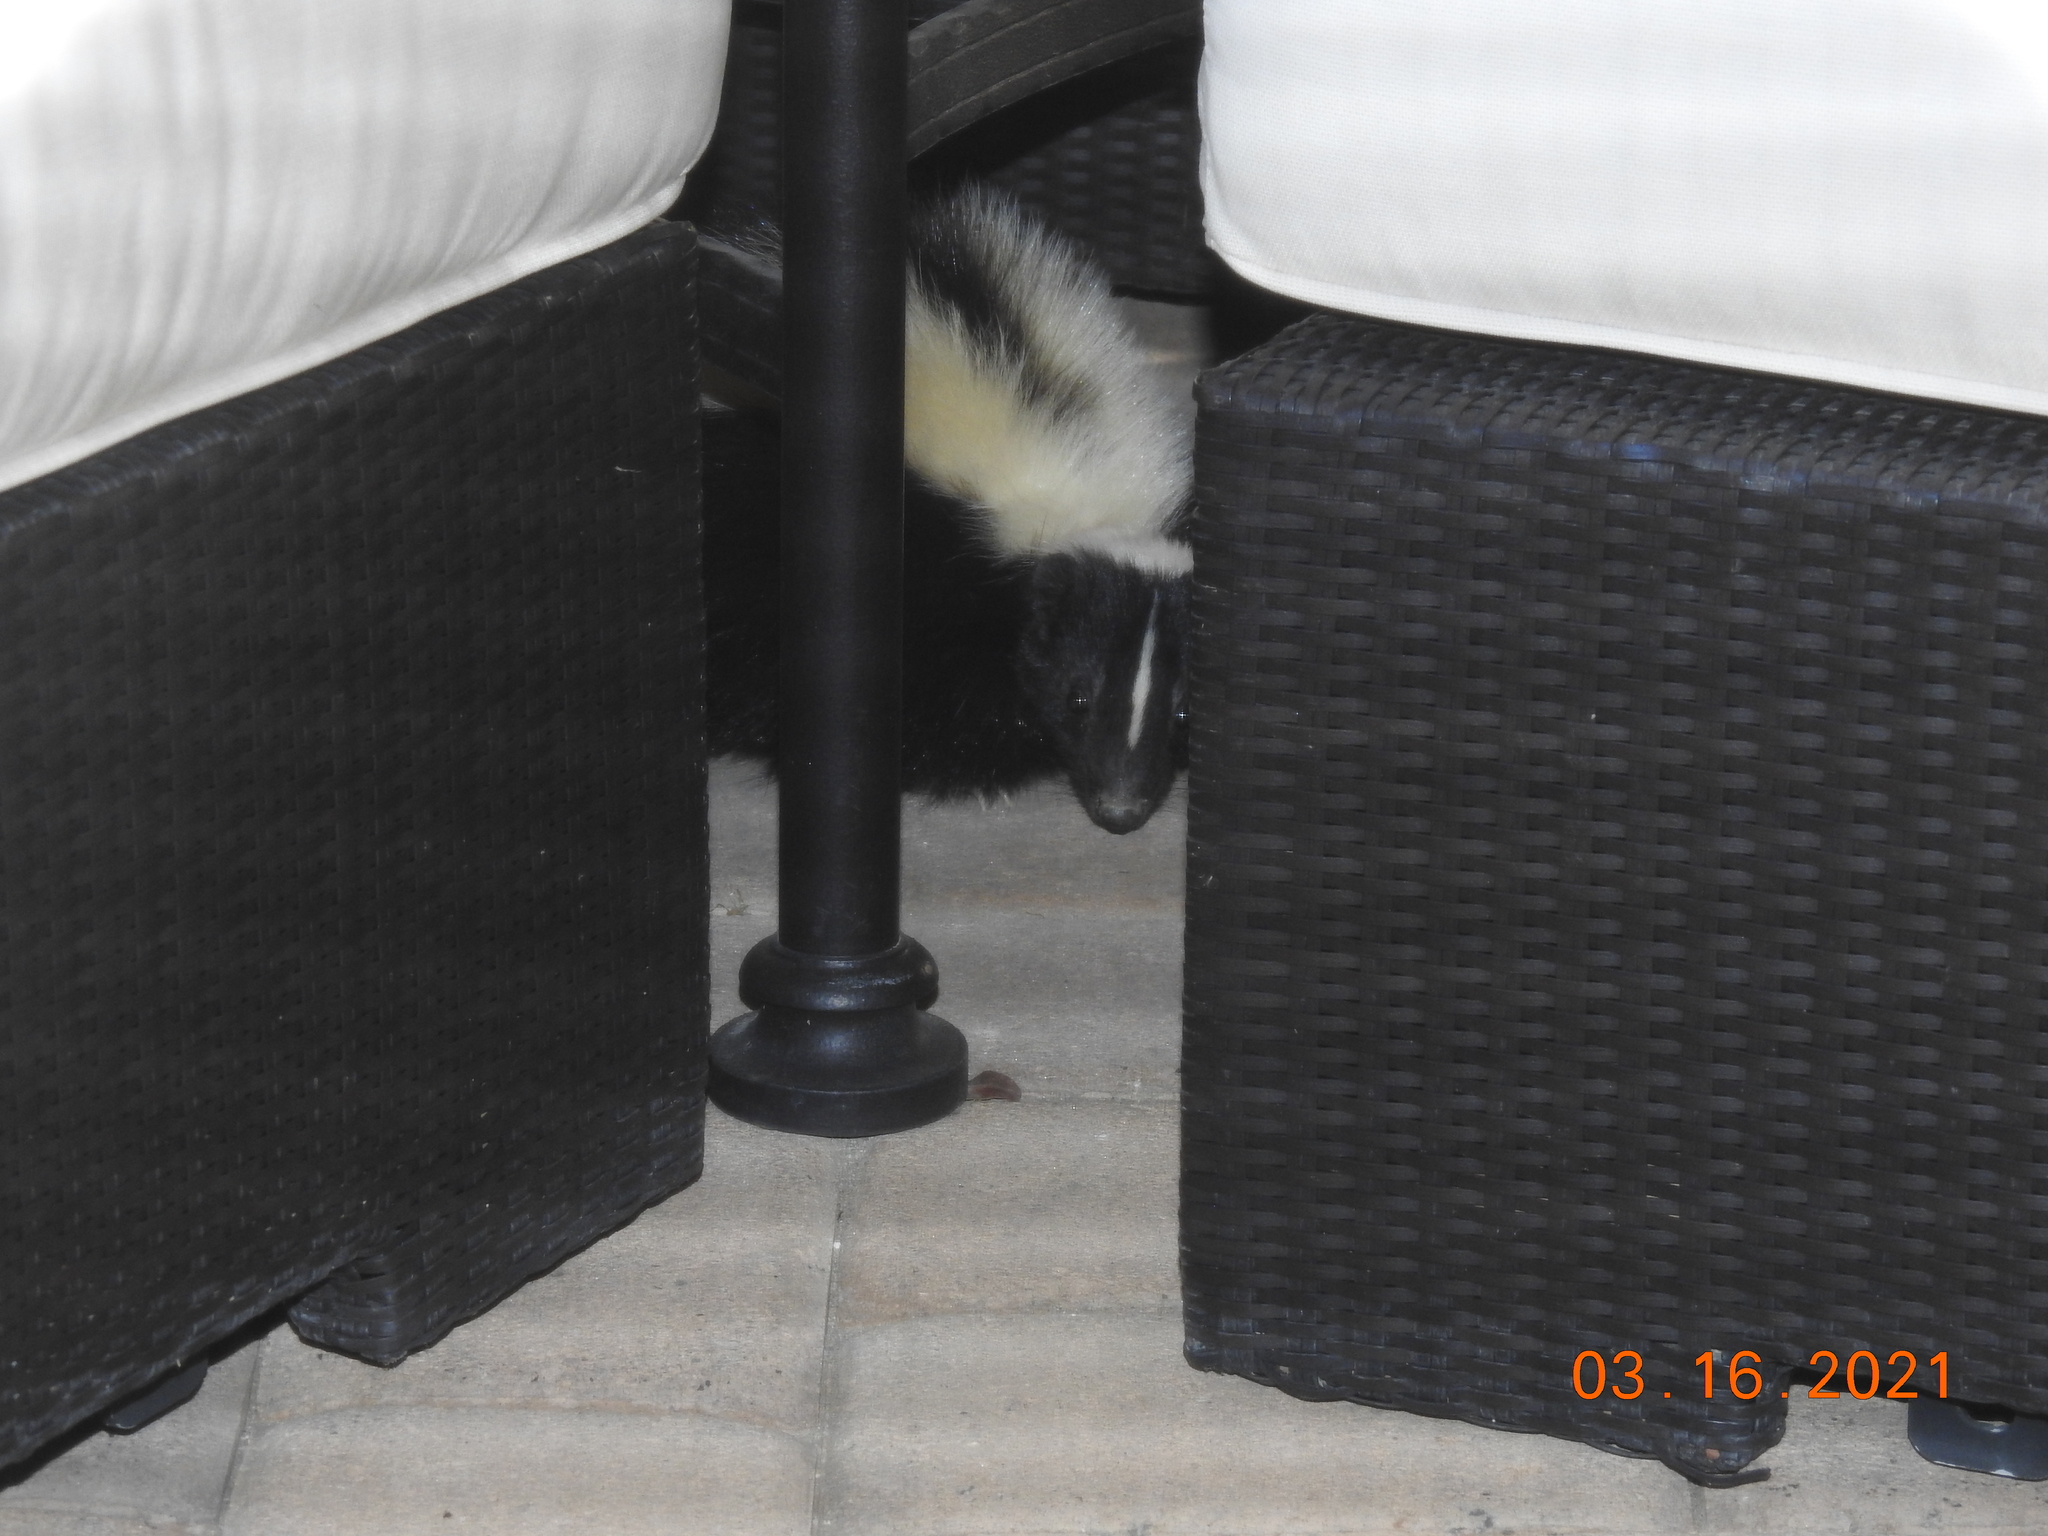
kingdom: Animalia
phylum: Chordata
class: Mammalia
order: Carnivora
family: Mephitidae
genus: Mephitis
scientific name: Mephitis mephitis
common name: Striped skunk
